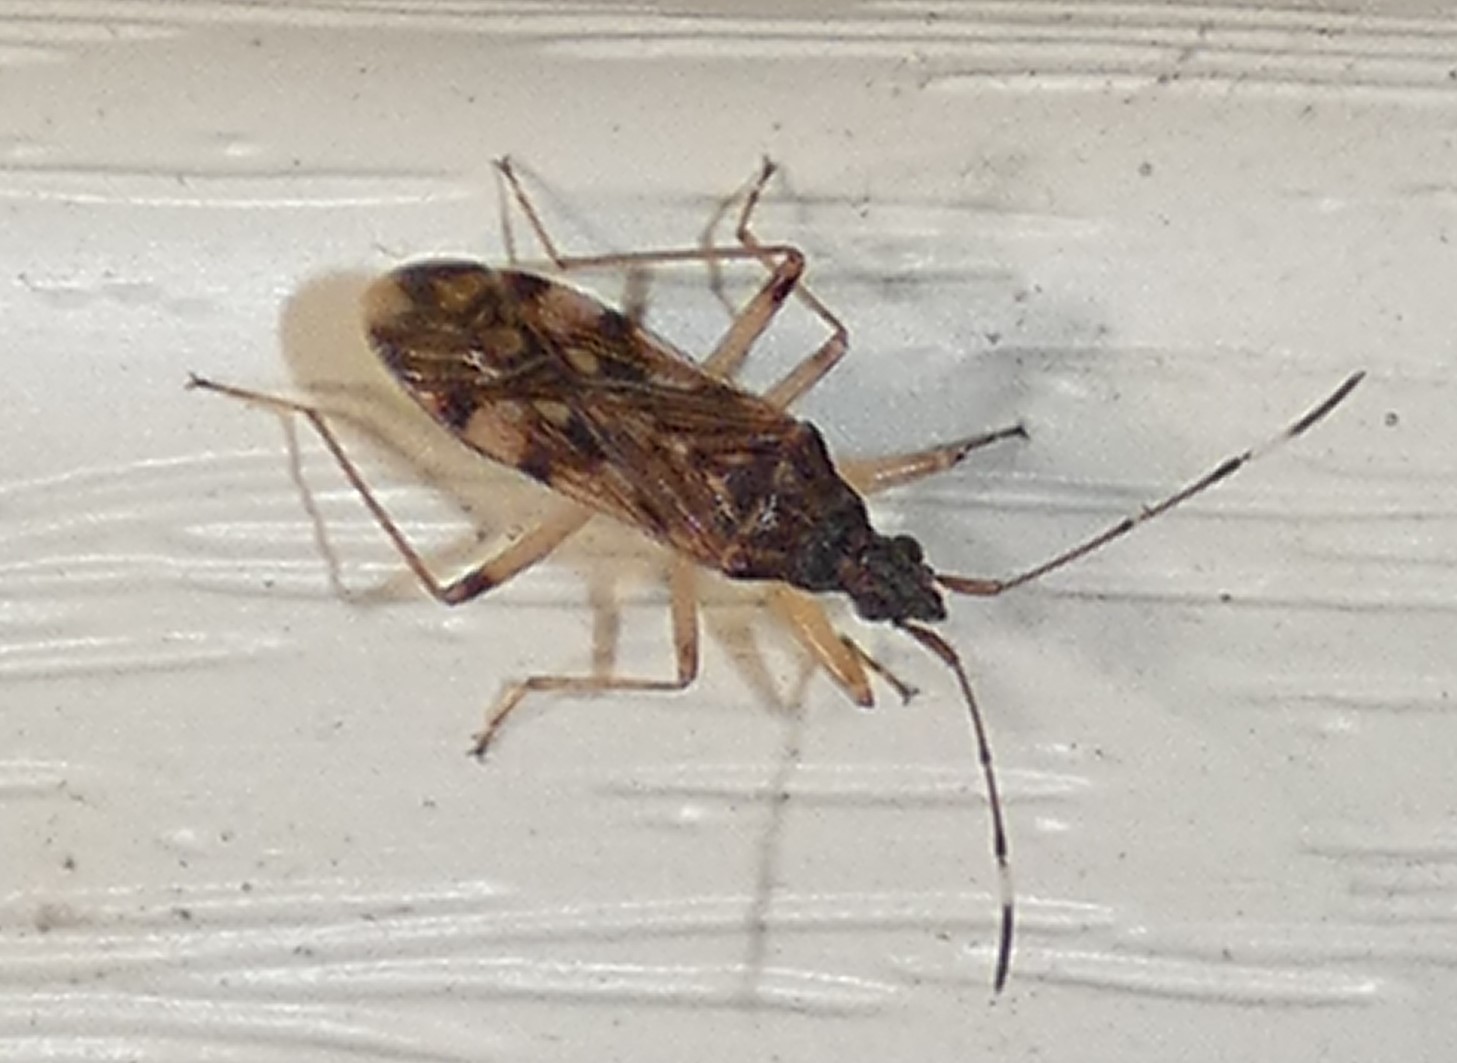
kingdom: Animalia
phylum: Arthropoda
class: Insecta
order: Hemiptera
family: Rhyparochromidae
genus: Ozophora
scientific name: Ozophora picturata
